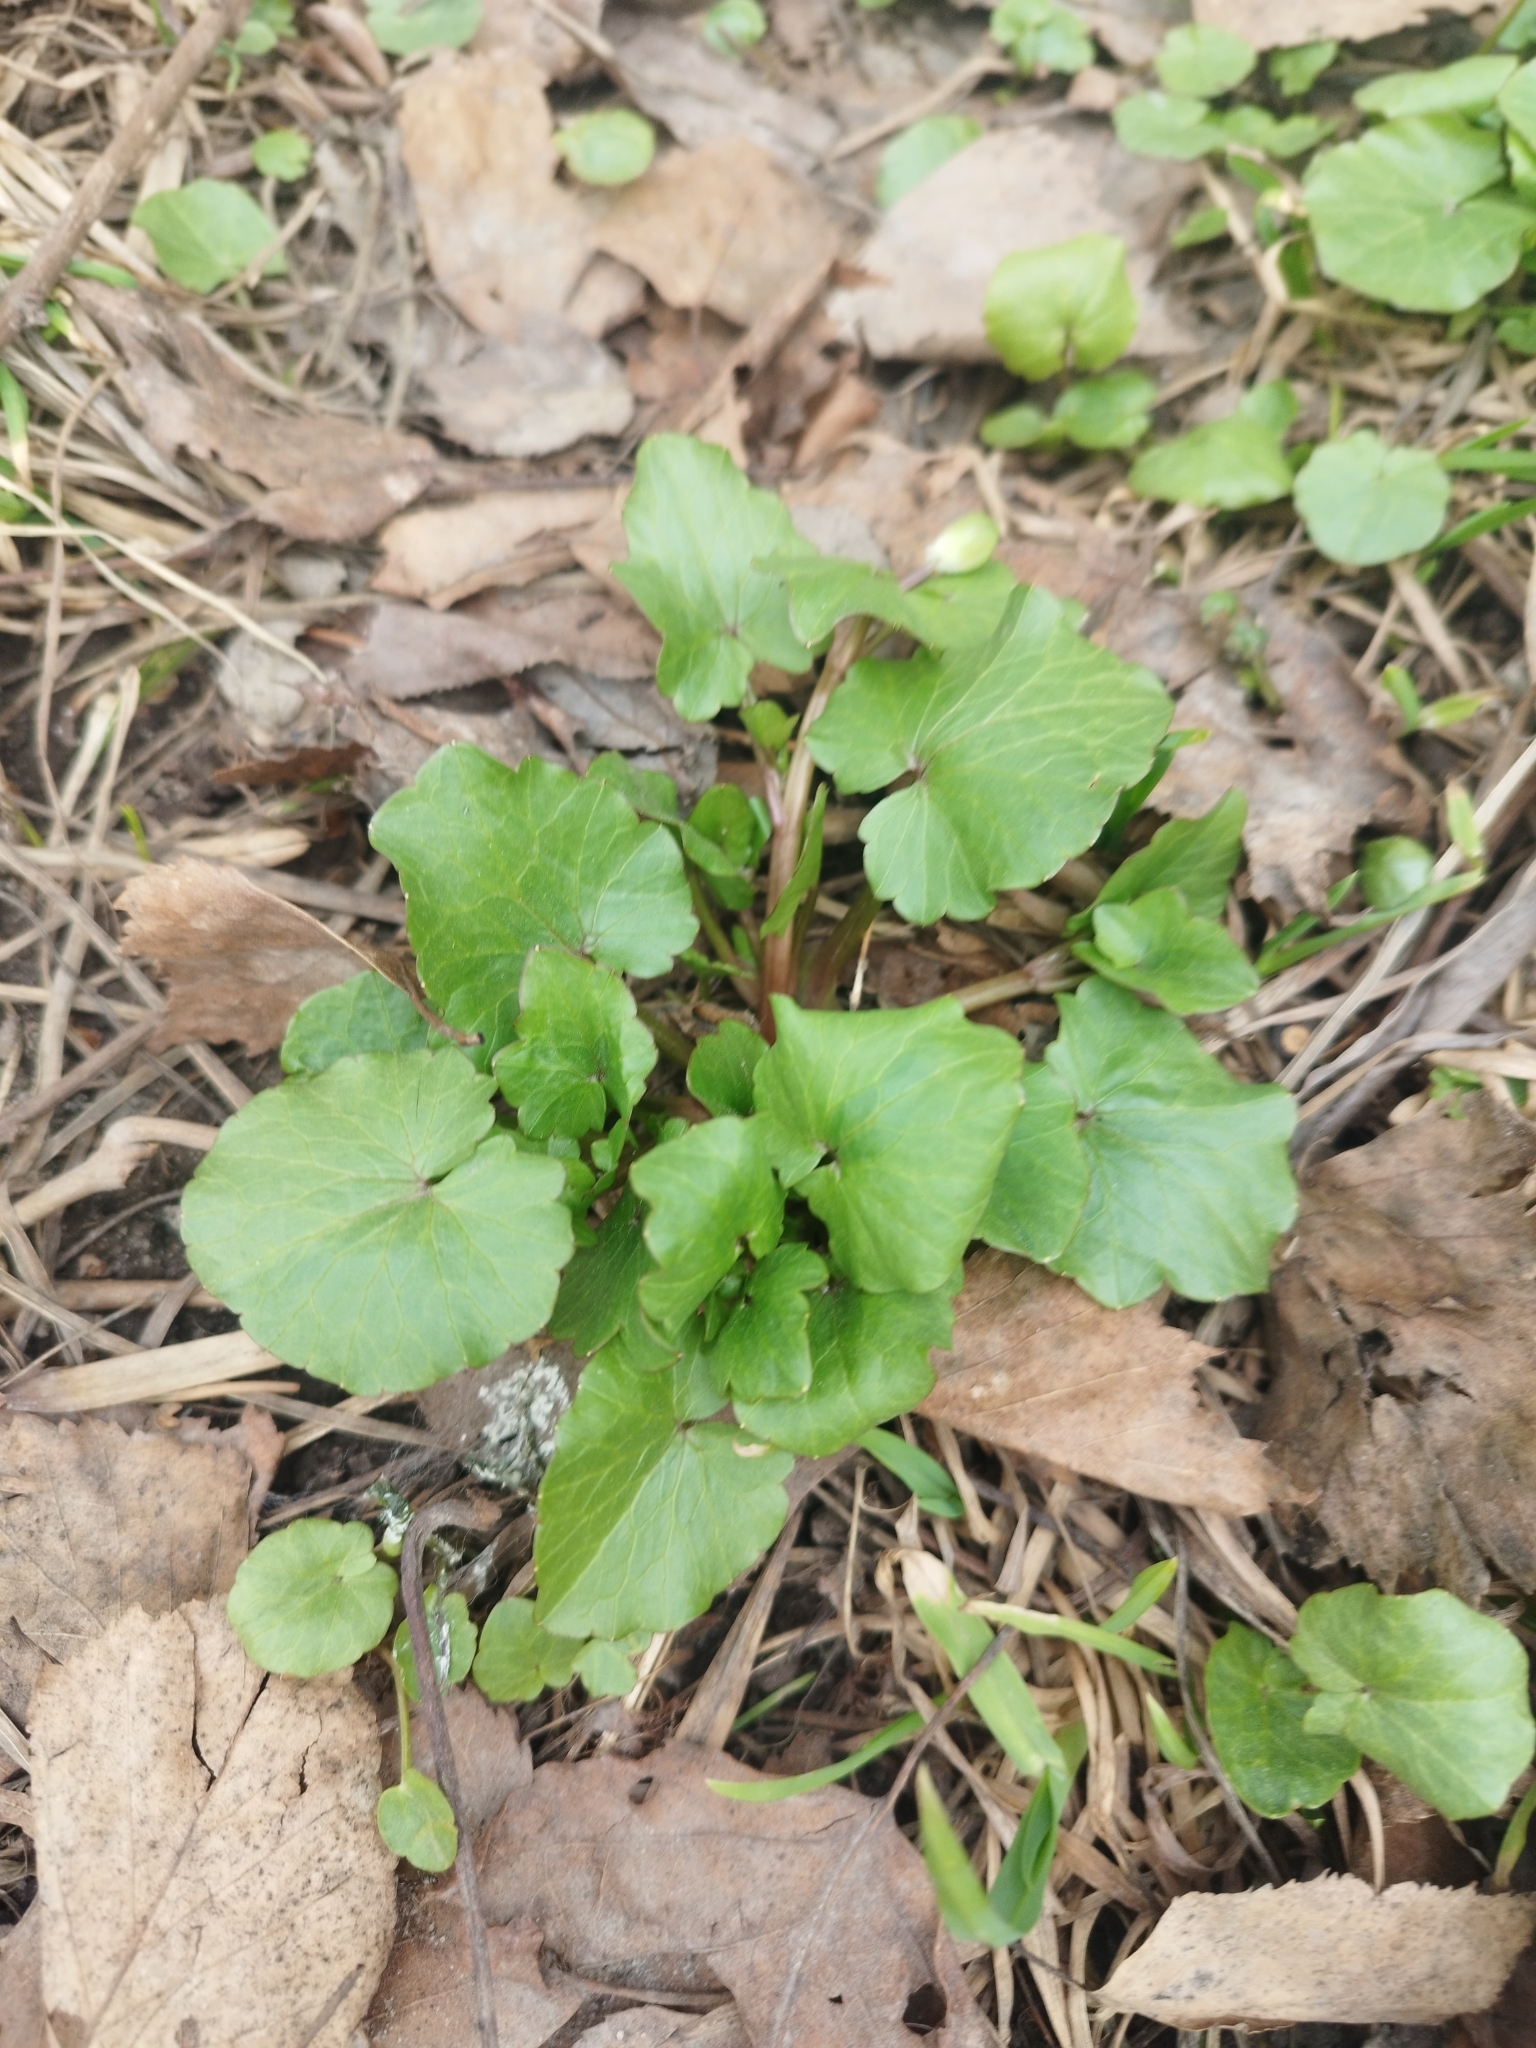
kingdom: Plantae
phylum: Tracheophyta
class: Magnoliopsida
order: Ranunculales
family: Ranunculaceae
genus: Ficaria
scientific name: Ficaria verna
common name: Lesser celandine
